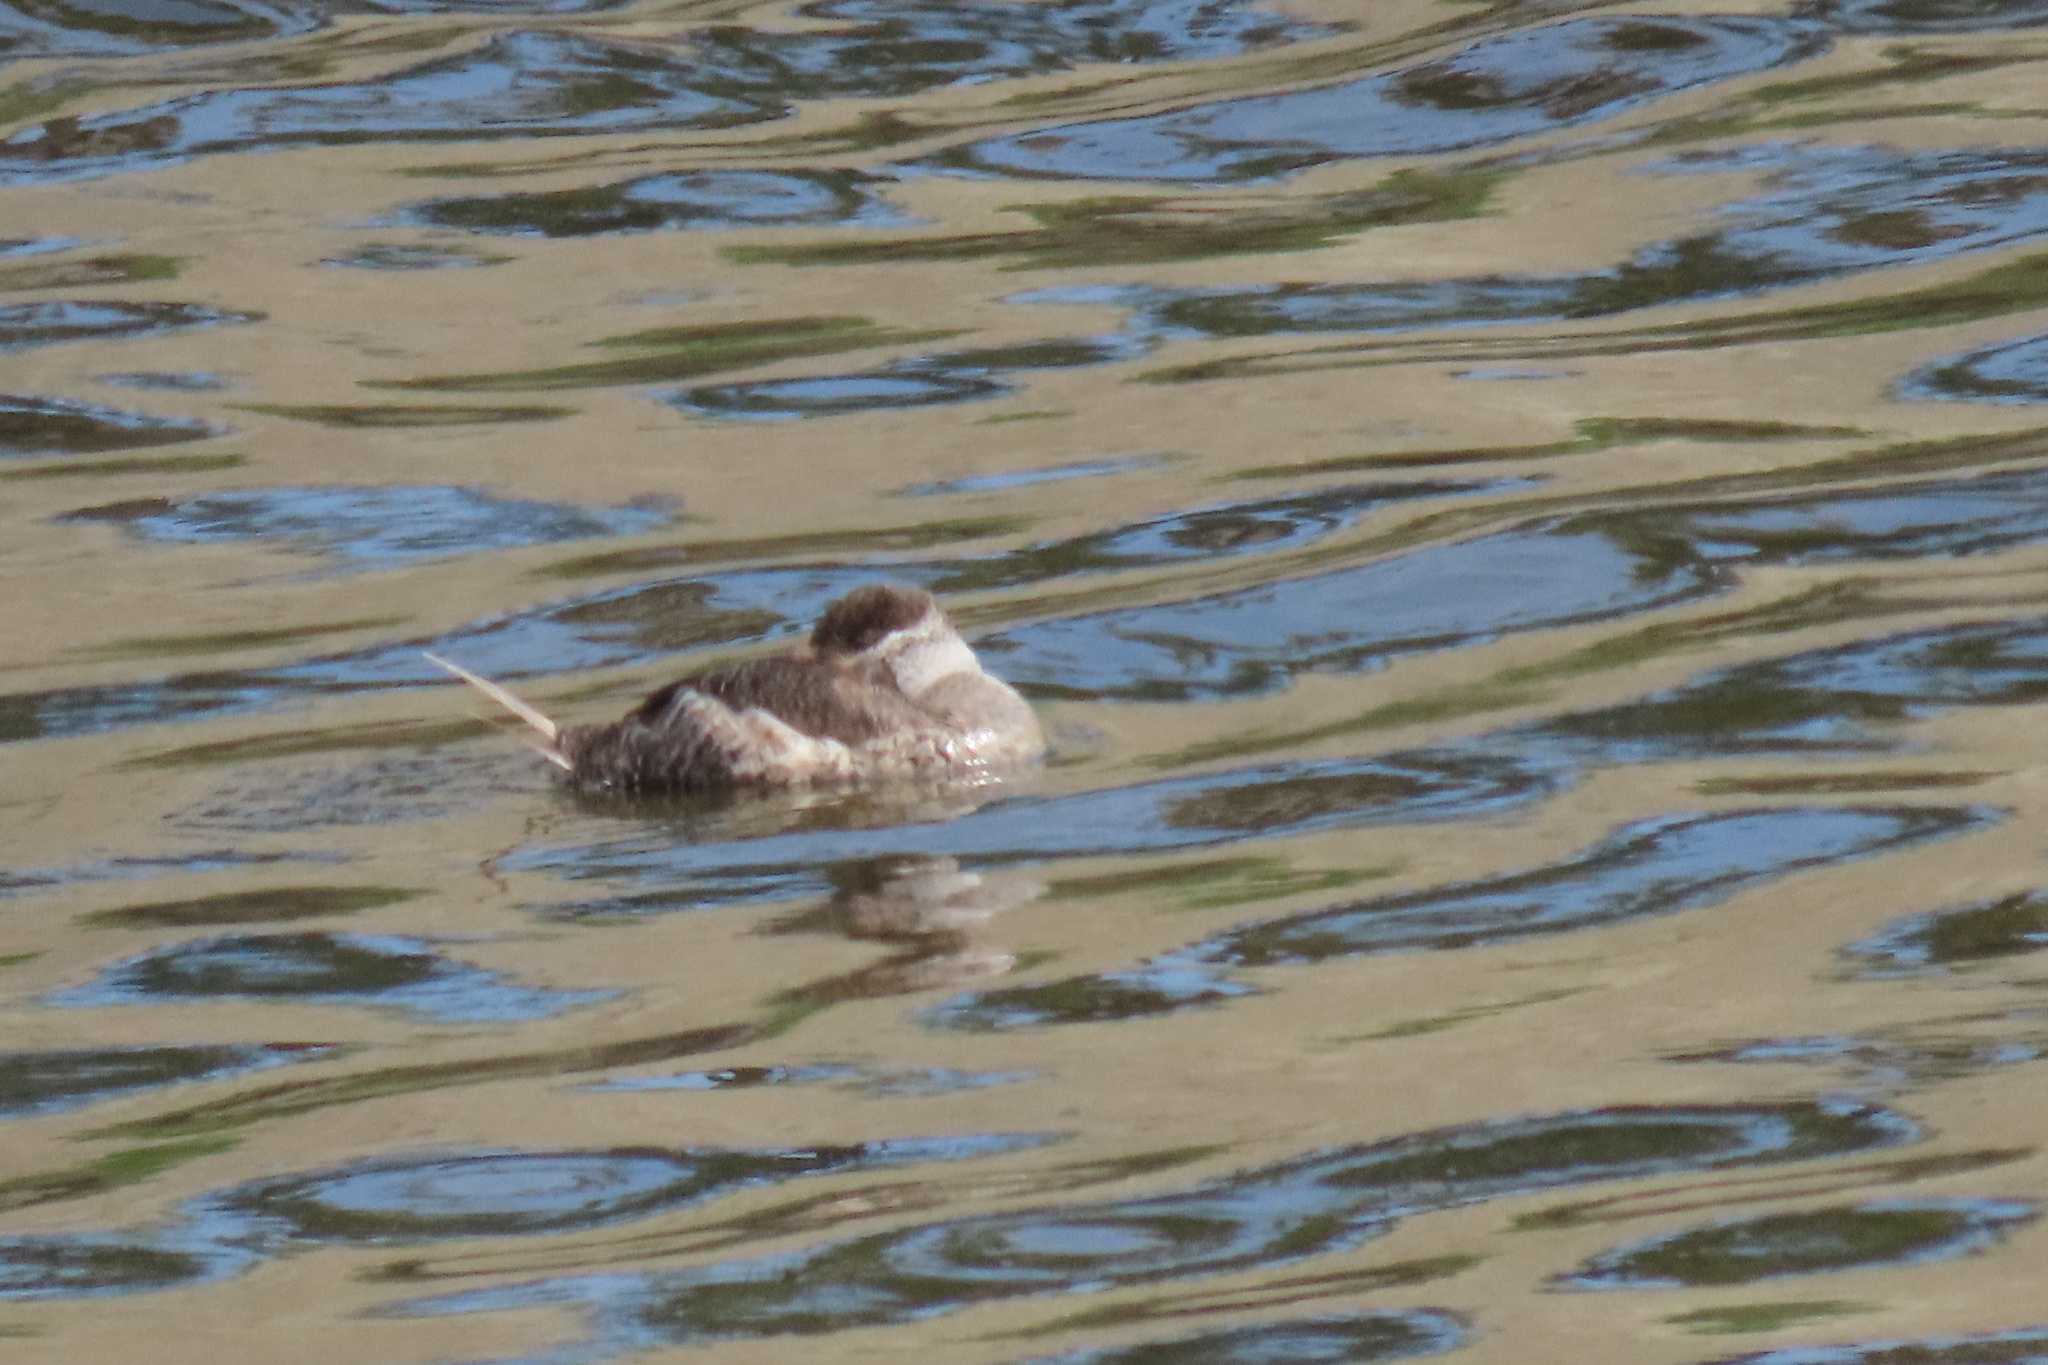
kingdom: Animalia
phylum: Chordata
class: Aves
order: Anseriformes
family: Anatidae
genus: Oxyura
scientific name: Oxyura jamaicensis
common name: Ruddy duck
